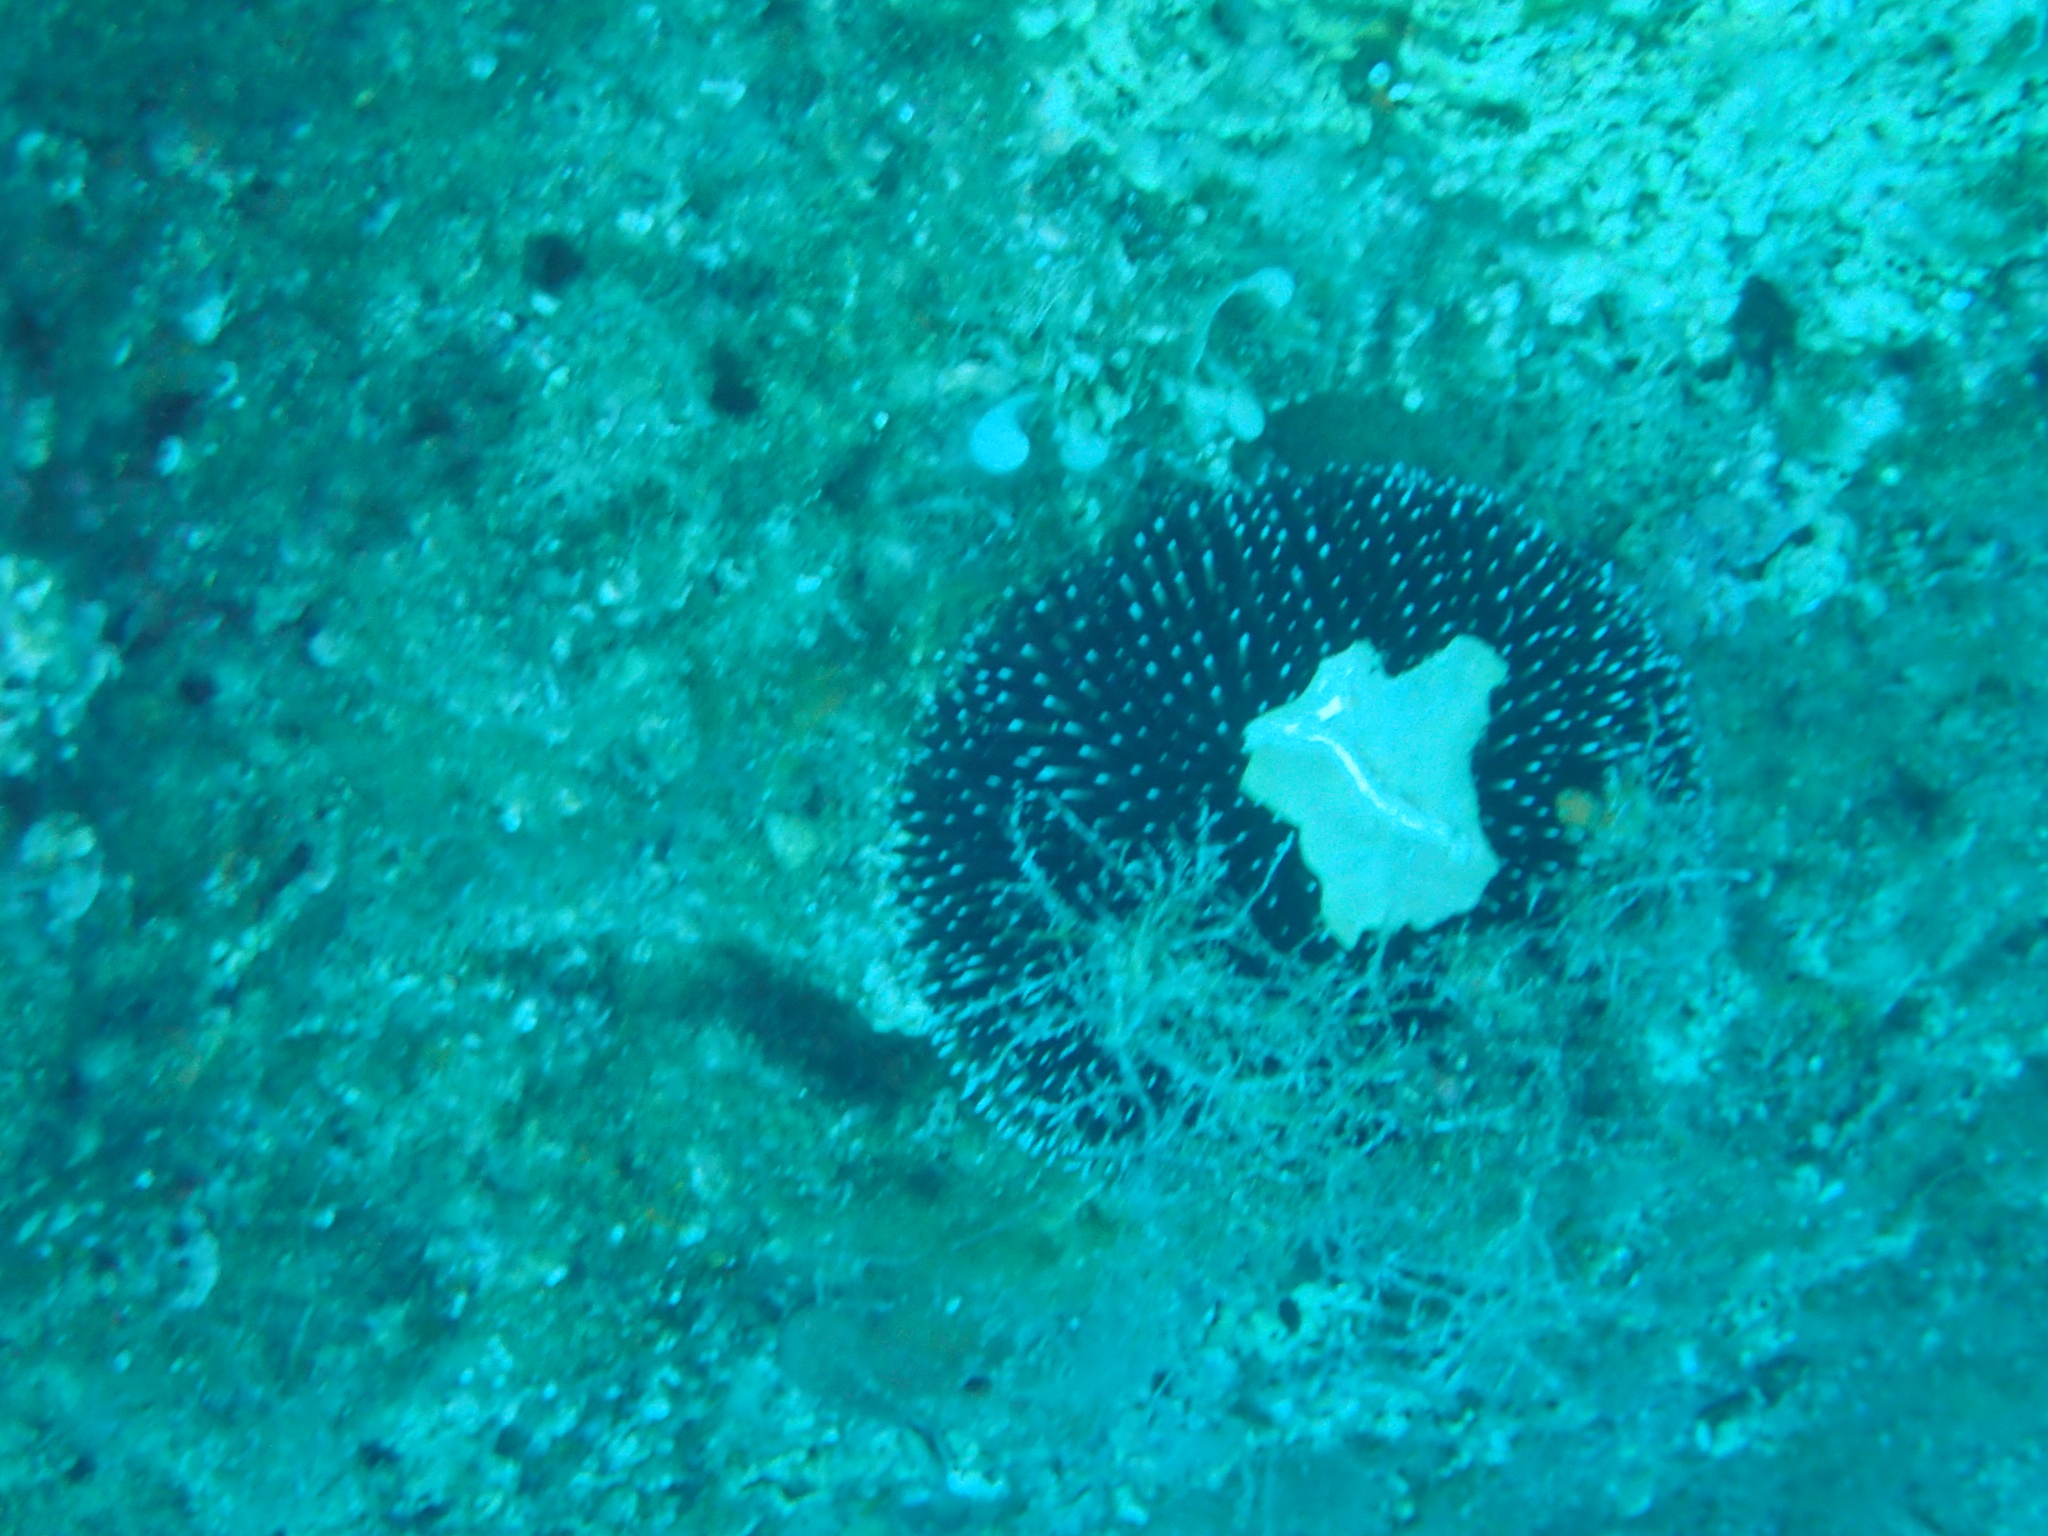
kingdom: Animalia
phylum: Echinodermata
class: Echinoidea
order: Camarodonta
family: Toxopneustidae
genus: Sphaerechinus
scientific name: Sphaerechinus granularis
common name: Violet sea urchin
